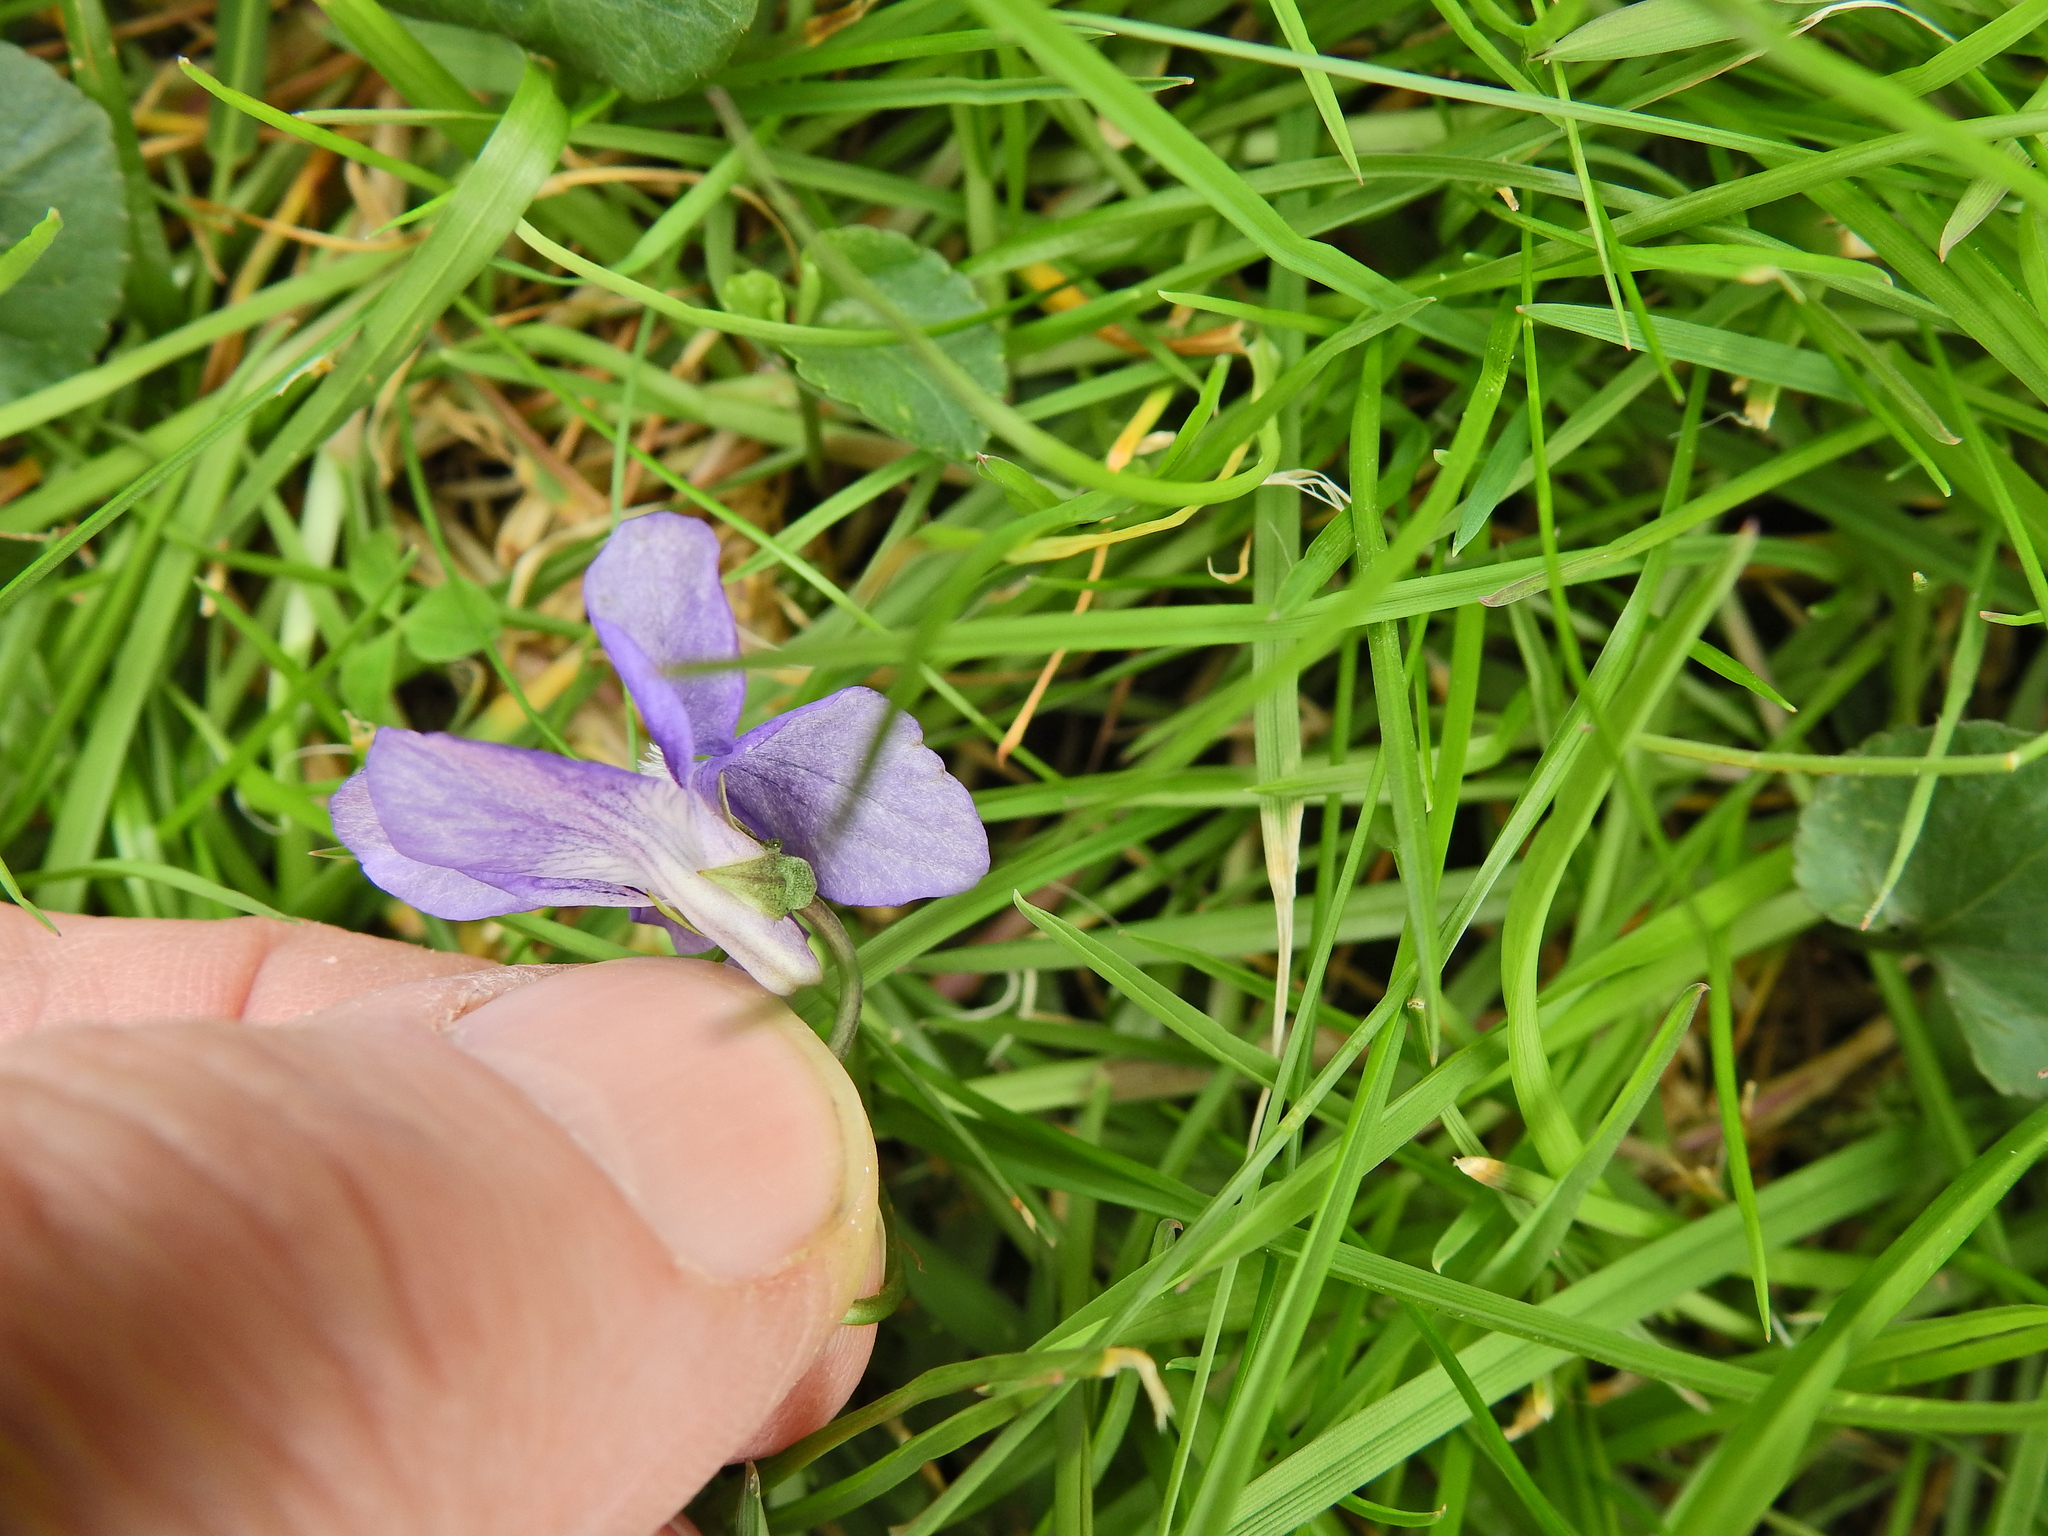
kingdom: Plantae
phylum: Tracheophyta
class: Magnoliopsida
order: Malpighiales
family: Violaceae
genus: Viola
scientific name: Viola riviniana
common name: Common dog-violet
